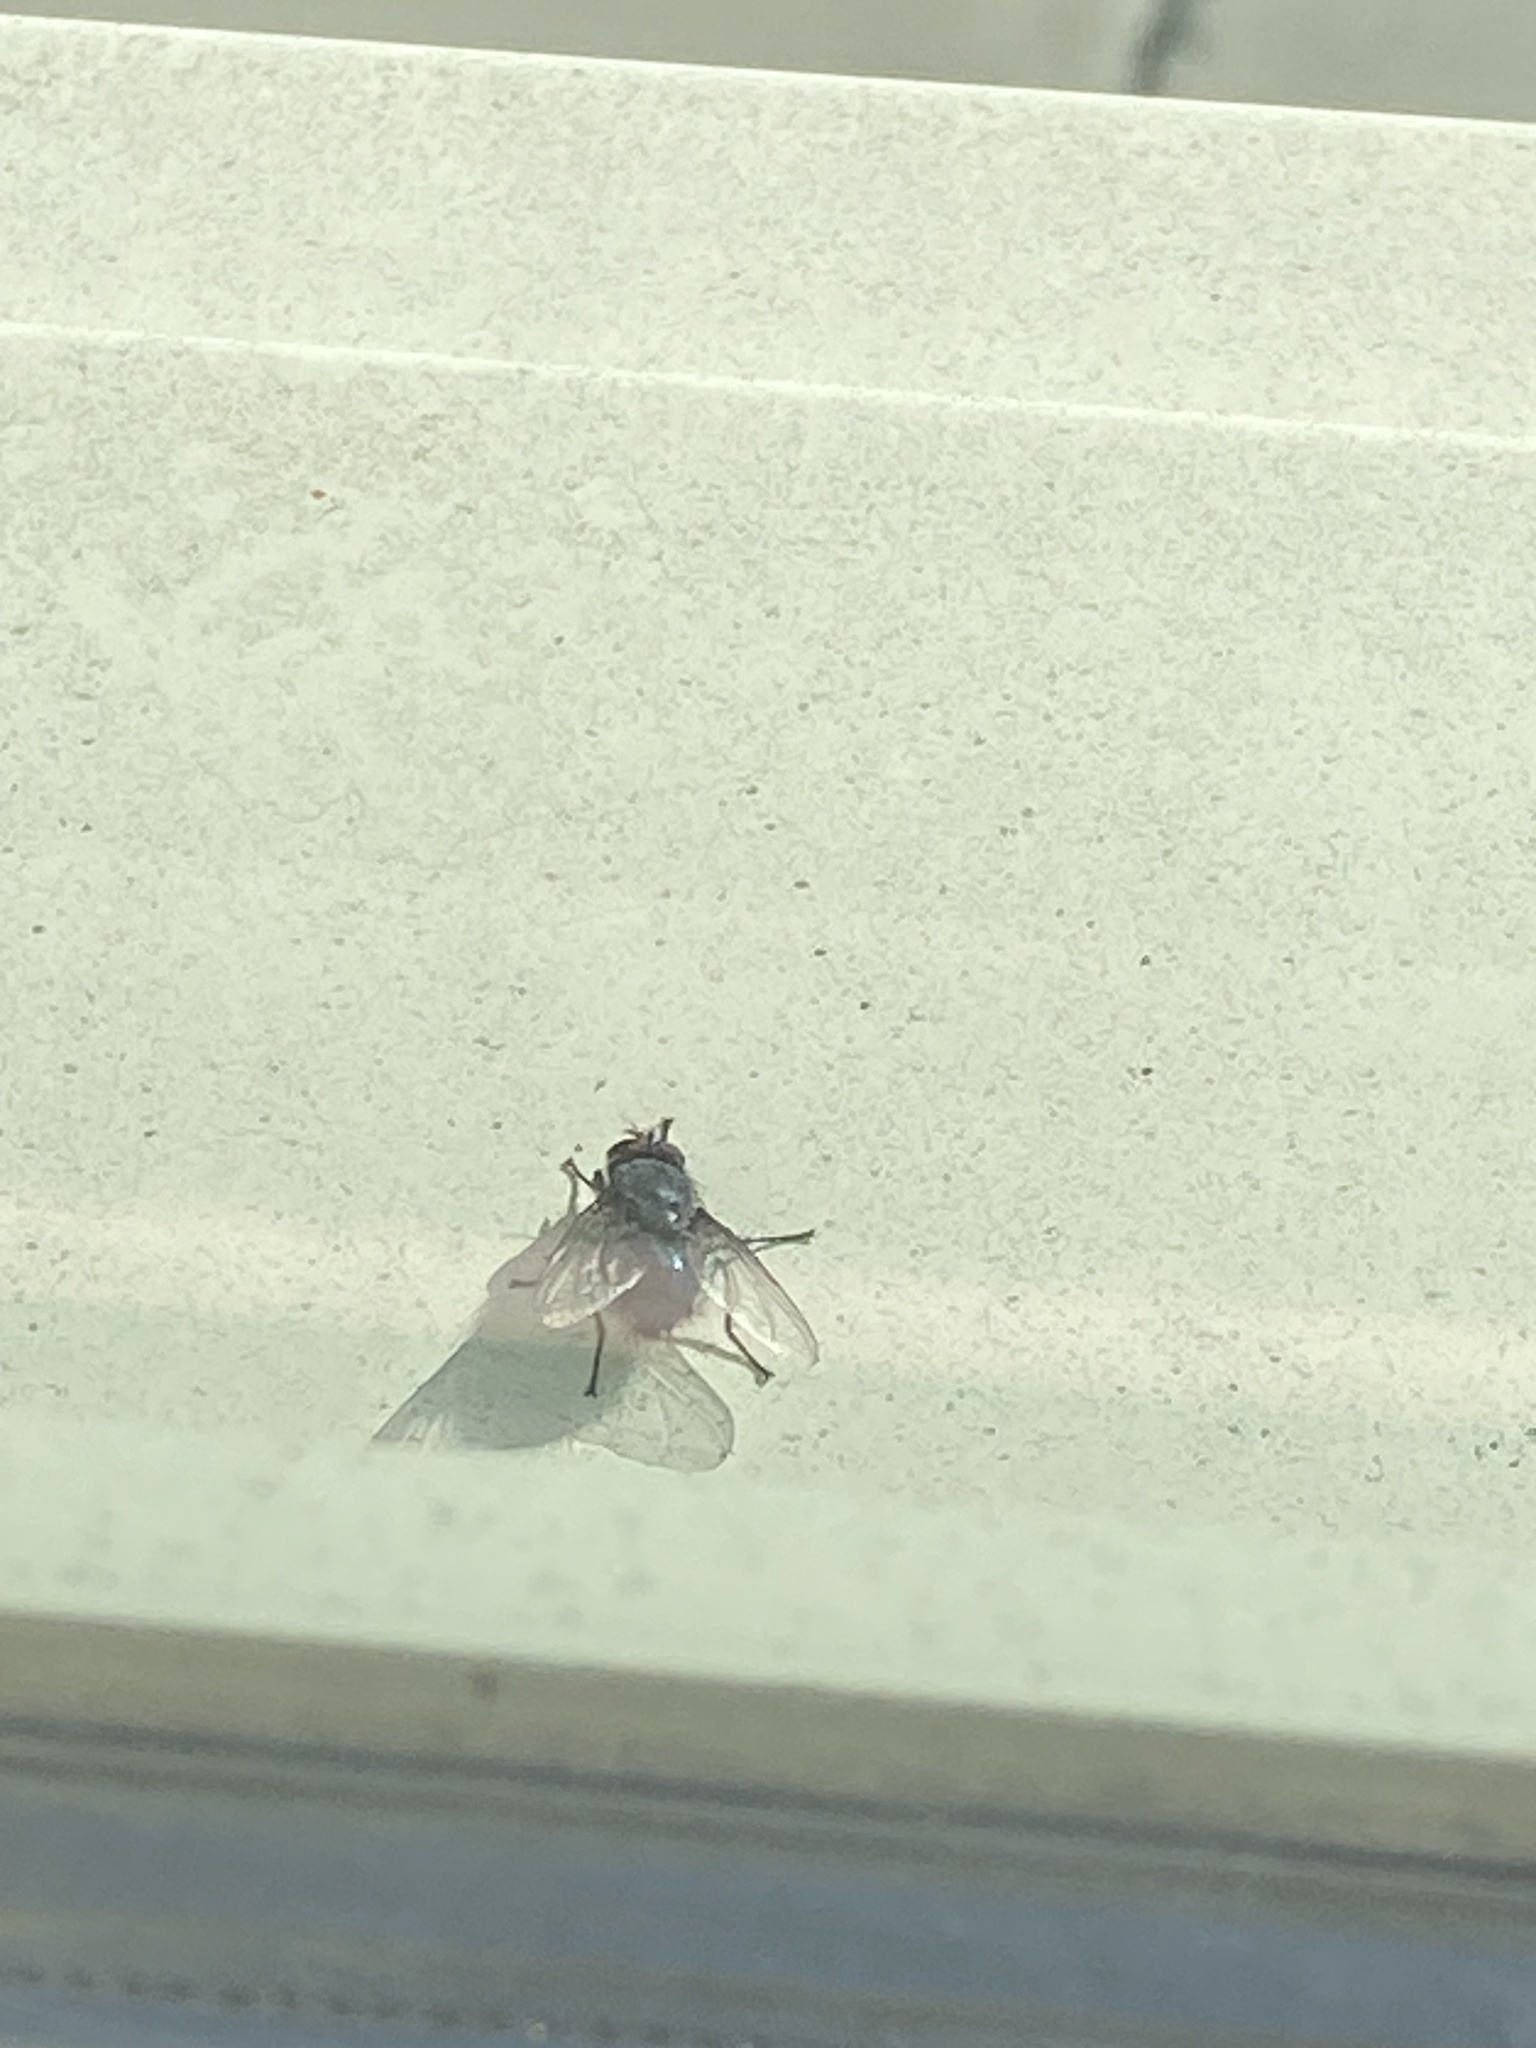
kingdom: Animalia
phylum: Arthropoda
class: Insecta
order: Diptera
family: Calliphoridae
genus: Calliphora
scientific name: Calliphora vicina
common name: Common blow flie
